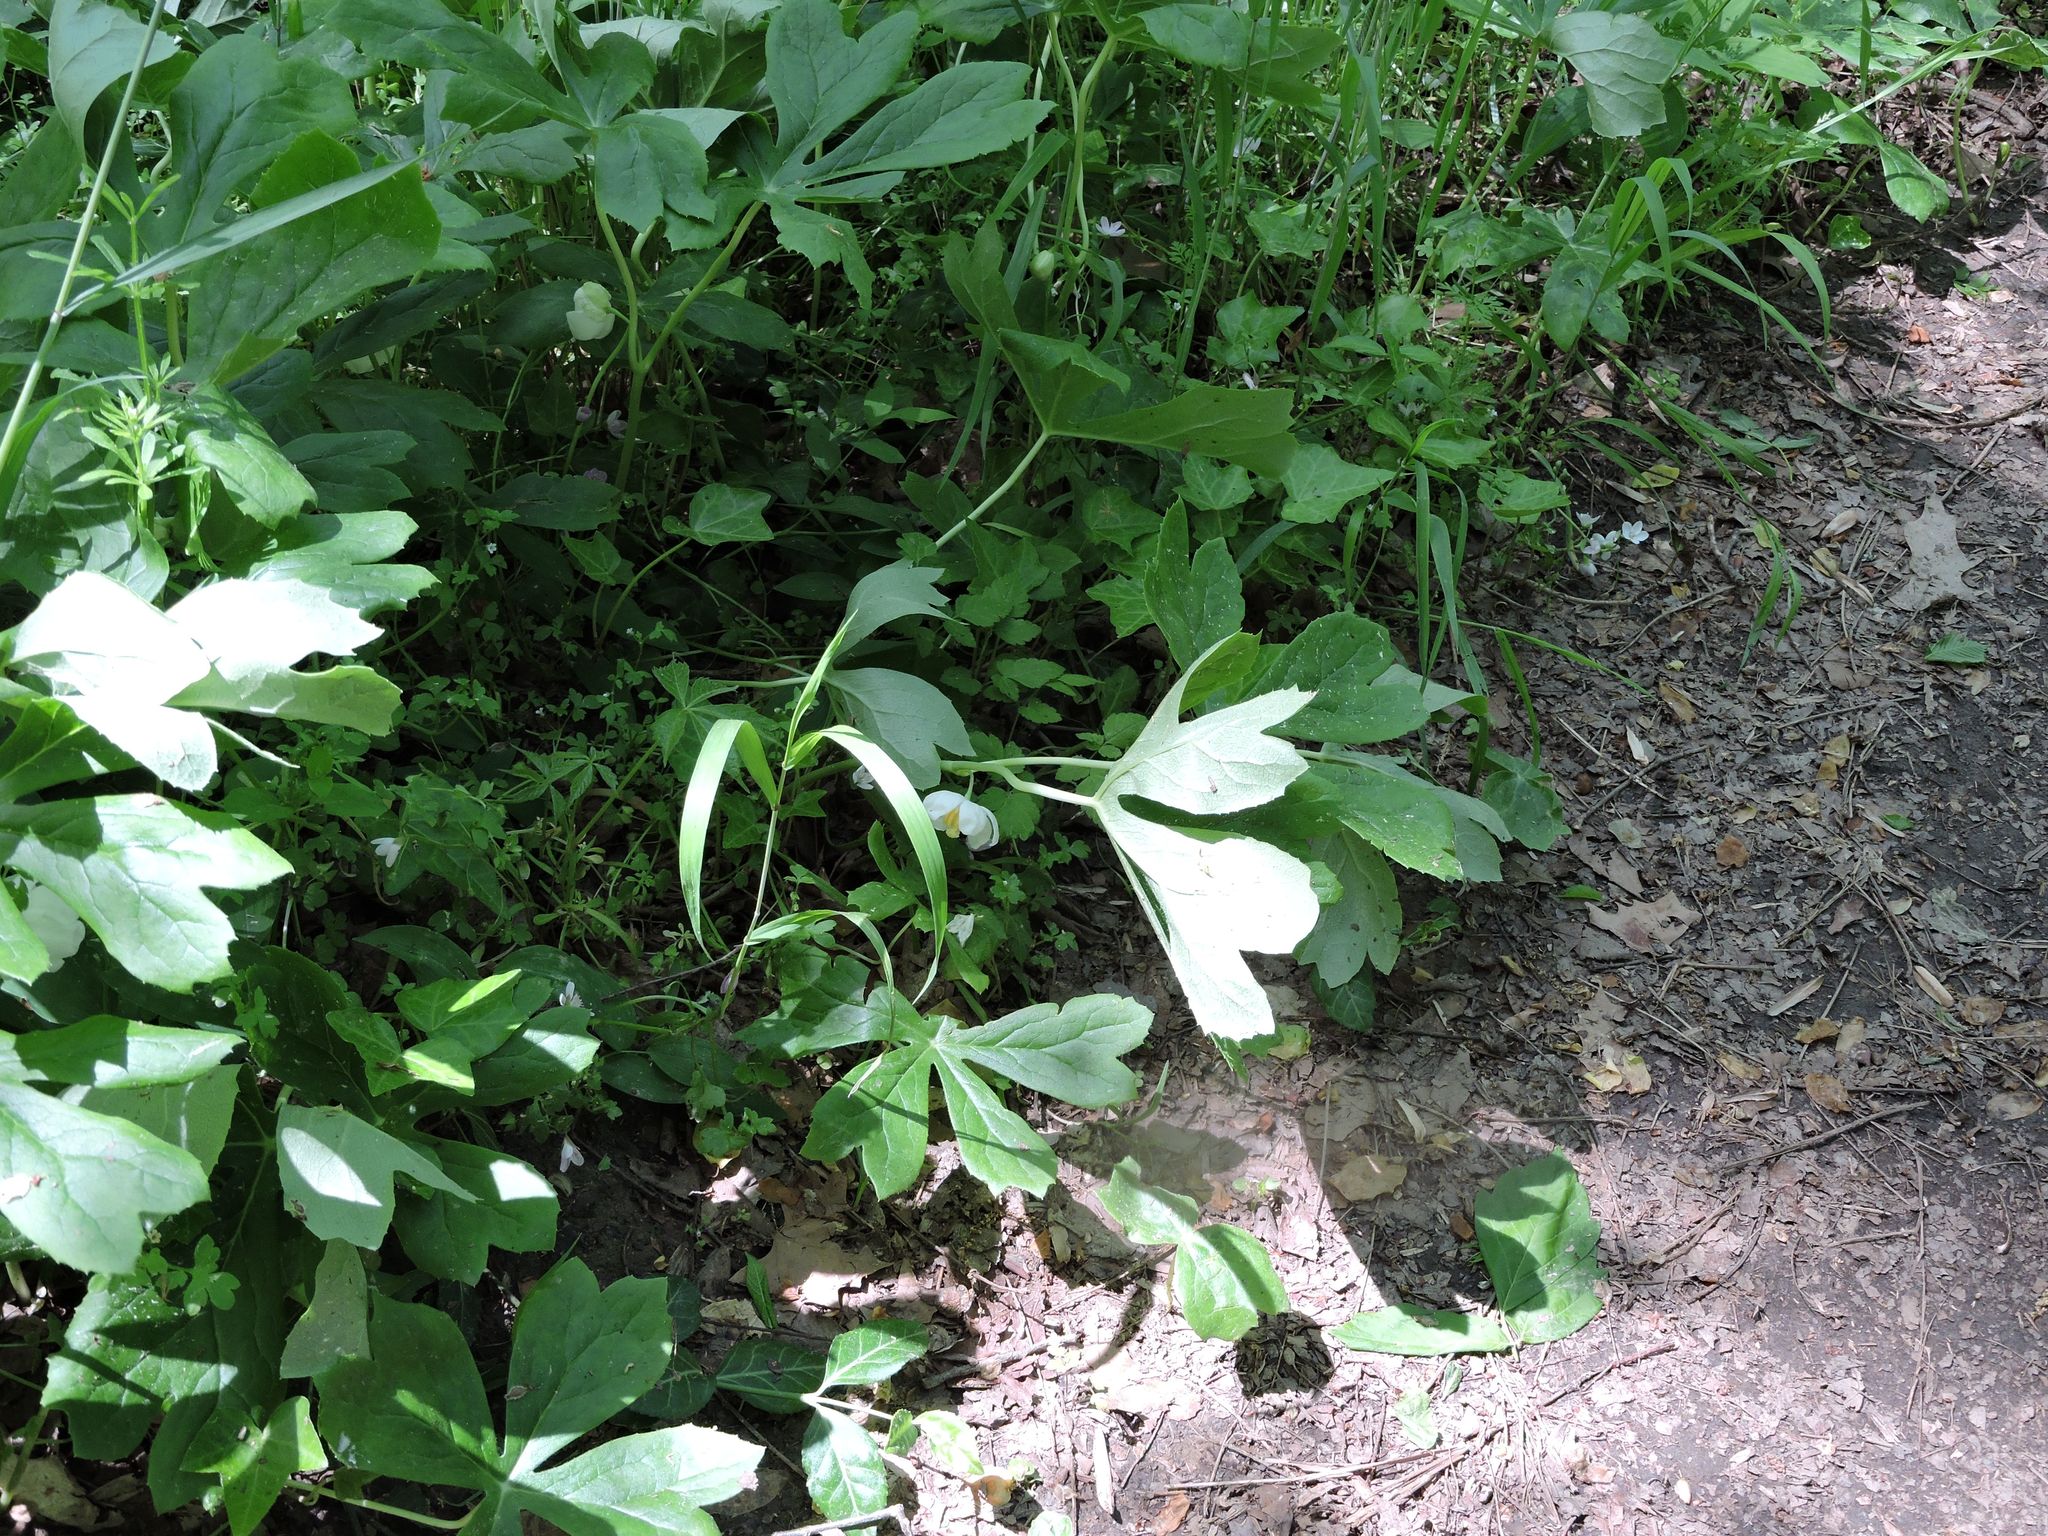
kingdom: Plantae
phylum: Tracheophyta
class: Magnoliopsida
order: Ranunculales
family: Berberidaceae
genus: Podophyllum
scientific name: Podophyllum peltatum
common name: Wild mandrake
